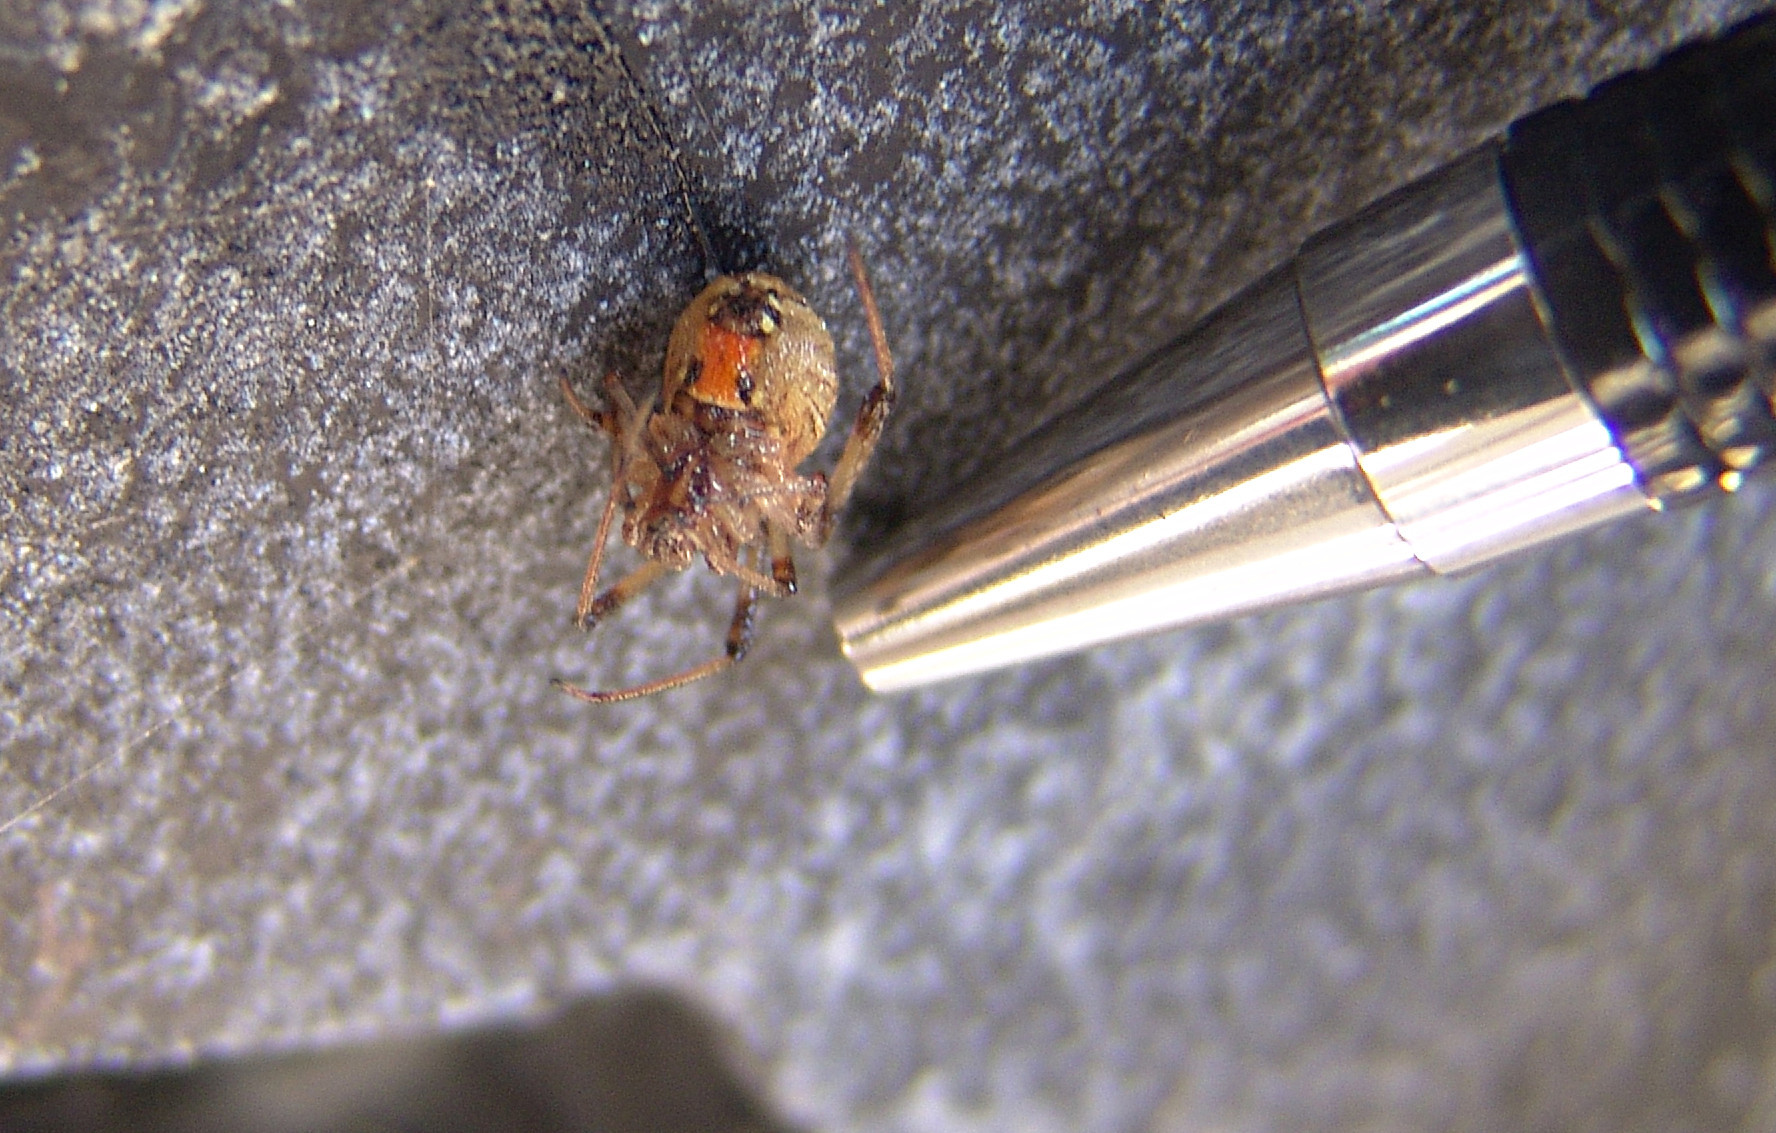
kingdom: Animalia
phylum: Arthropoda
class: Arachnida
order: Araneae
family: Theridiidae
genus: Latrodectus
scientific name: Latrodectus geometricus
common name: Brown widow spider
